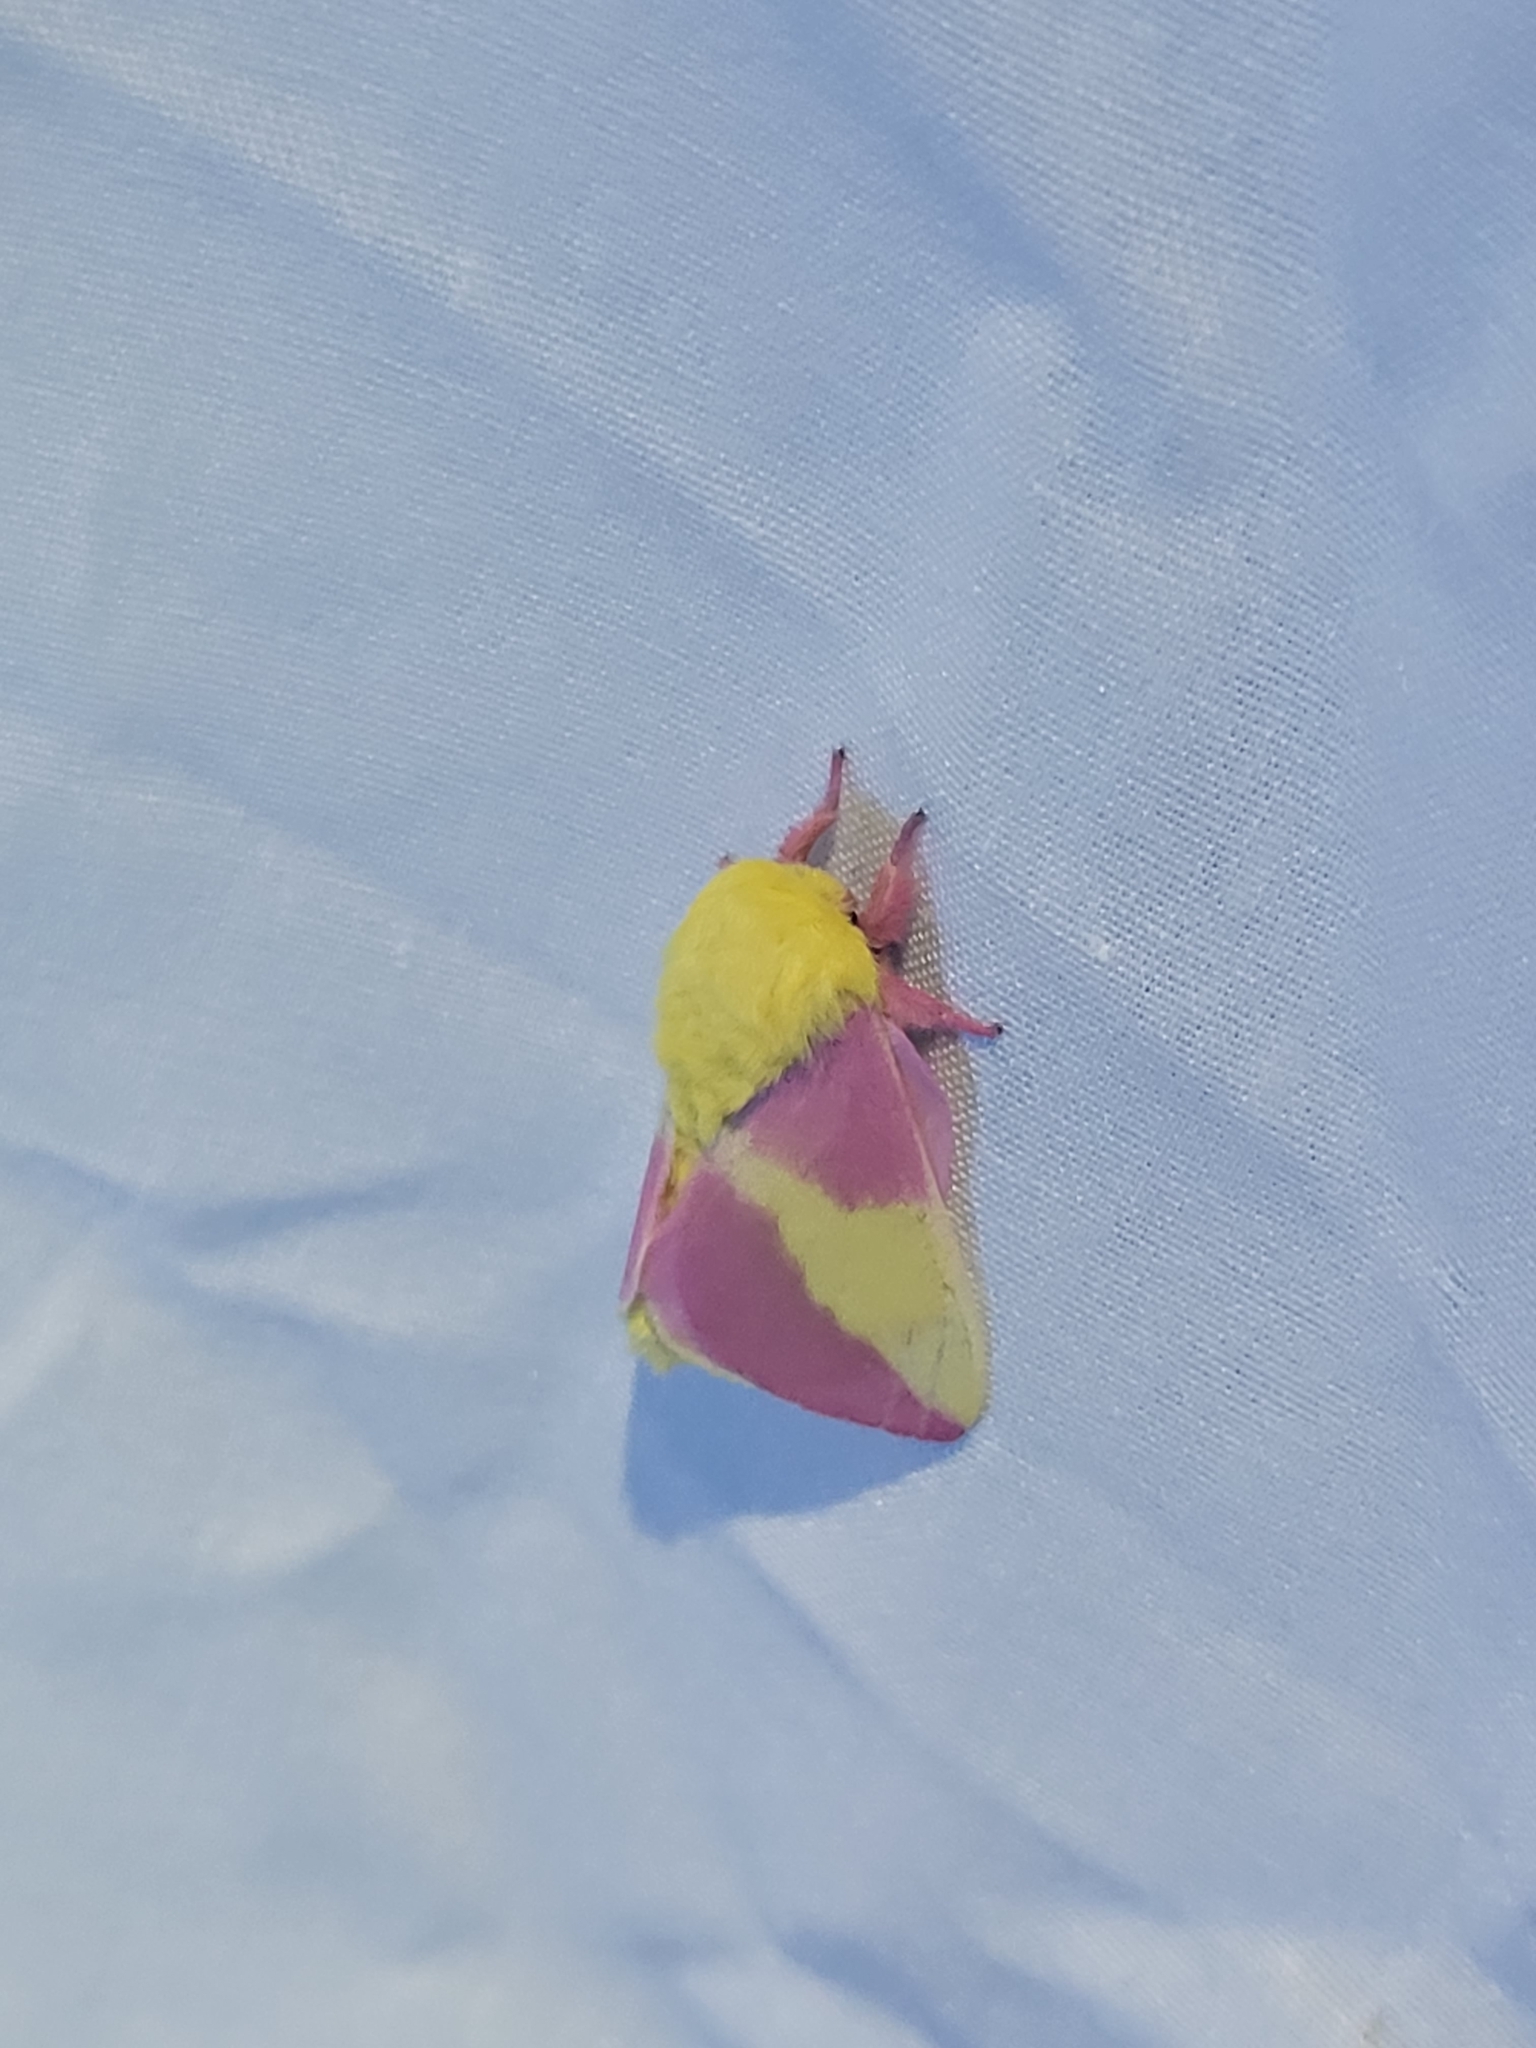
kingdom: Animalia
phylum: Arthropoda
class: Insecta
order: Lepidoptera
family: Saturniidae
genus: Dryocampa
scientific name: Dryocampa rubicunda
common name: Rosy maple moth
